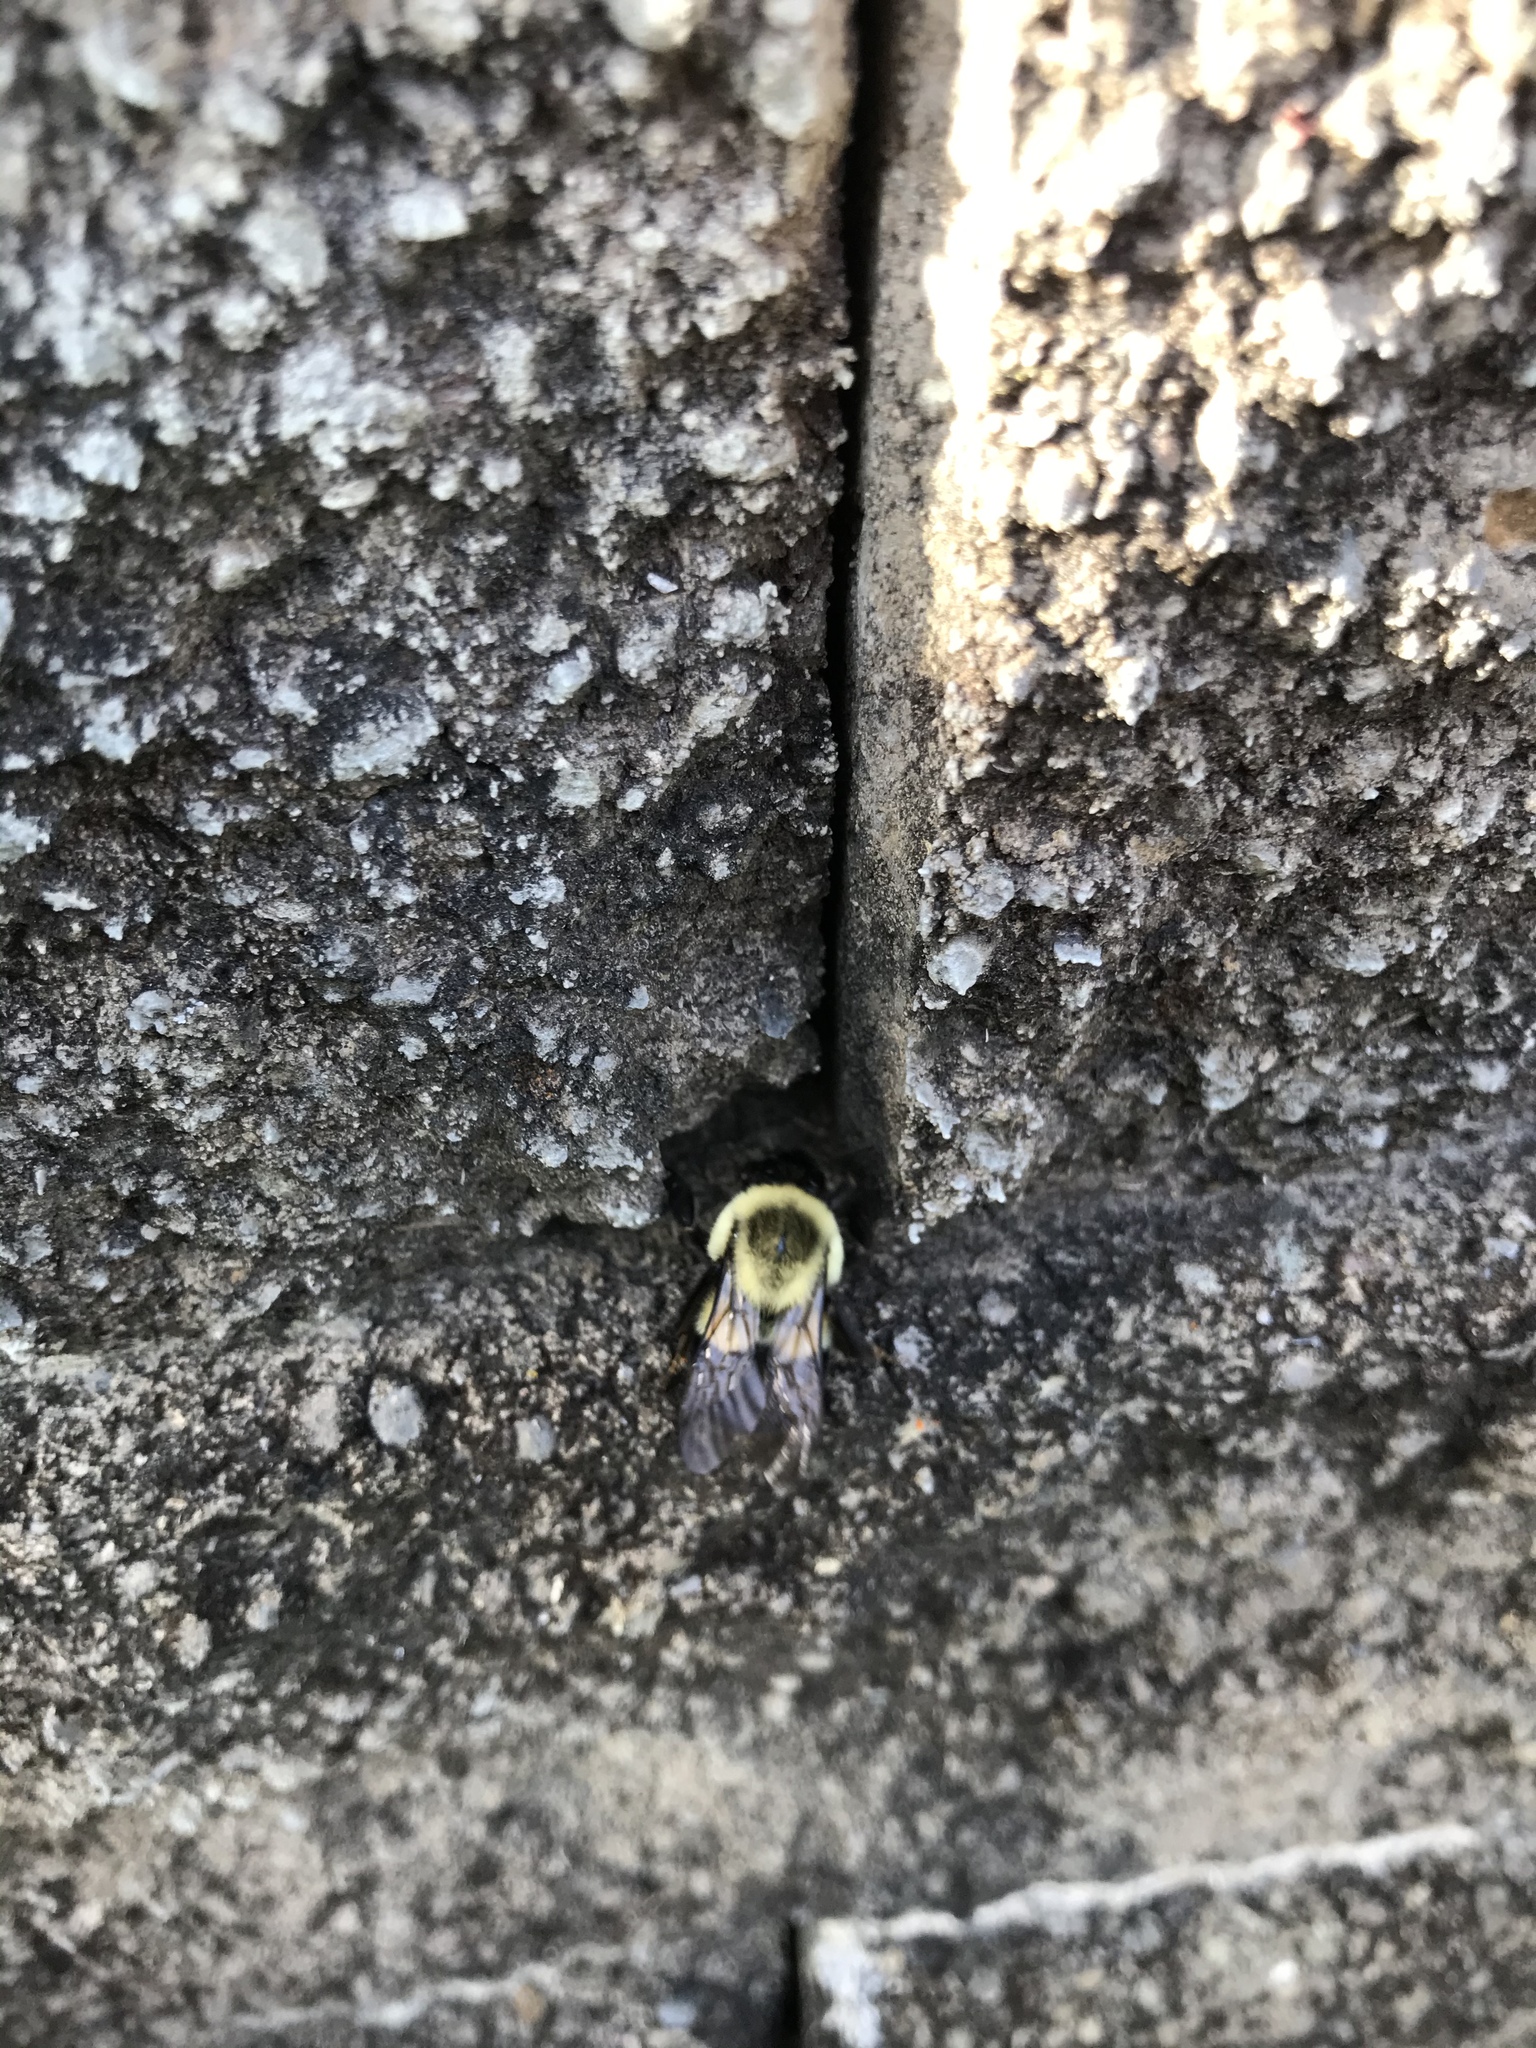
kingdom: Animalia
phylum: Arthropoda
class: Insecta
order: Hymenoptera
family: Apidae
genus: Bombus
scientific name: Bombus impatiens
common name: Common eastern bumble bee
